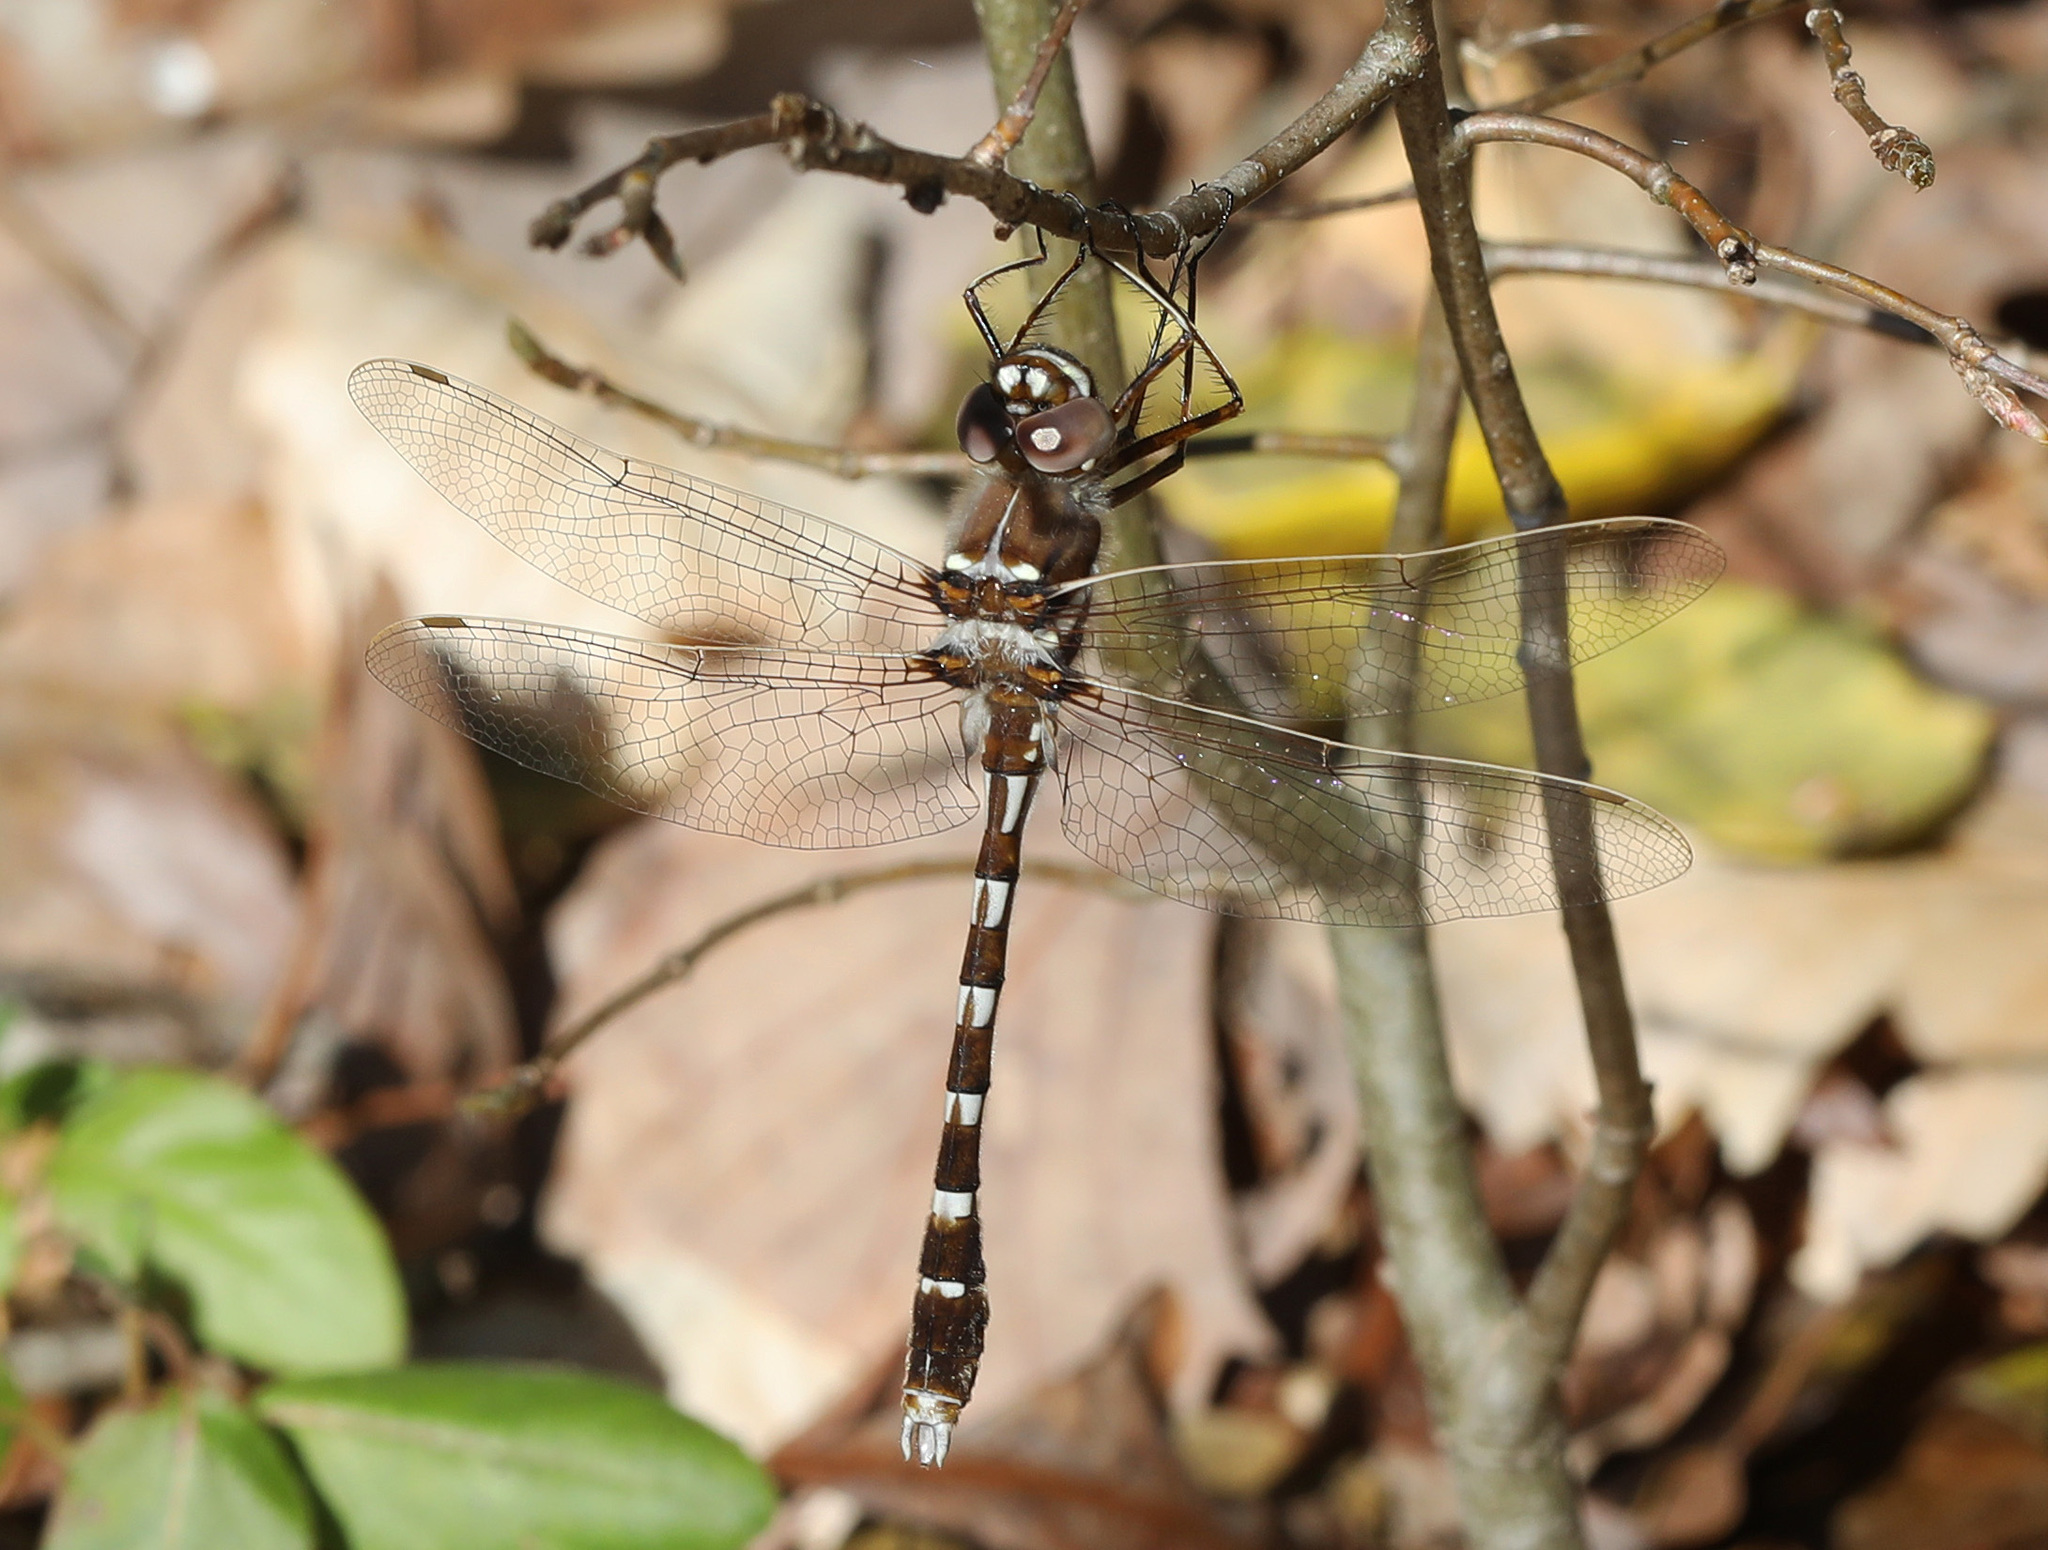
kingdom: Animalia
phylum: Arthropoda
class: Insecta
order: Odonata
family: Macromiidae
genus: Didymops
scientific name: Didymops transversa
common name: Stream cruiser
